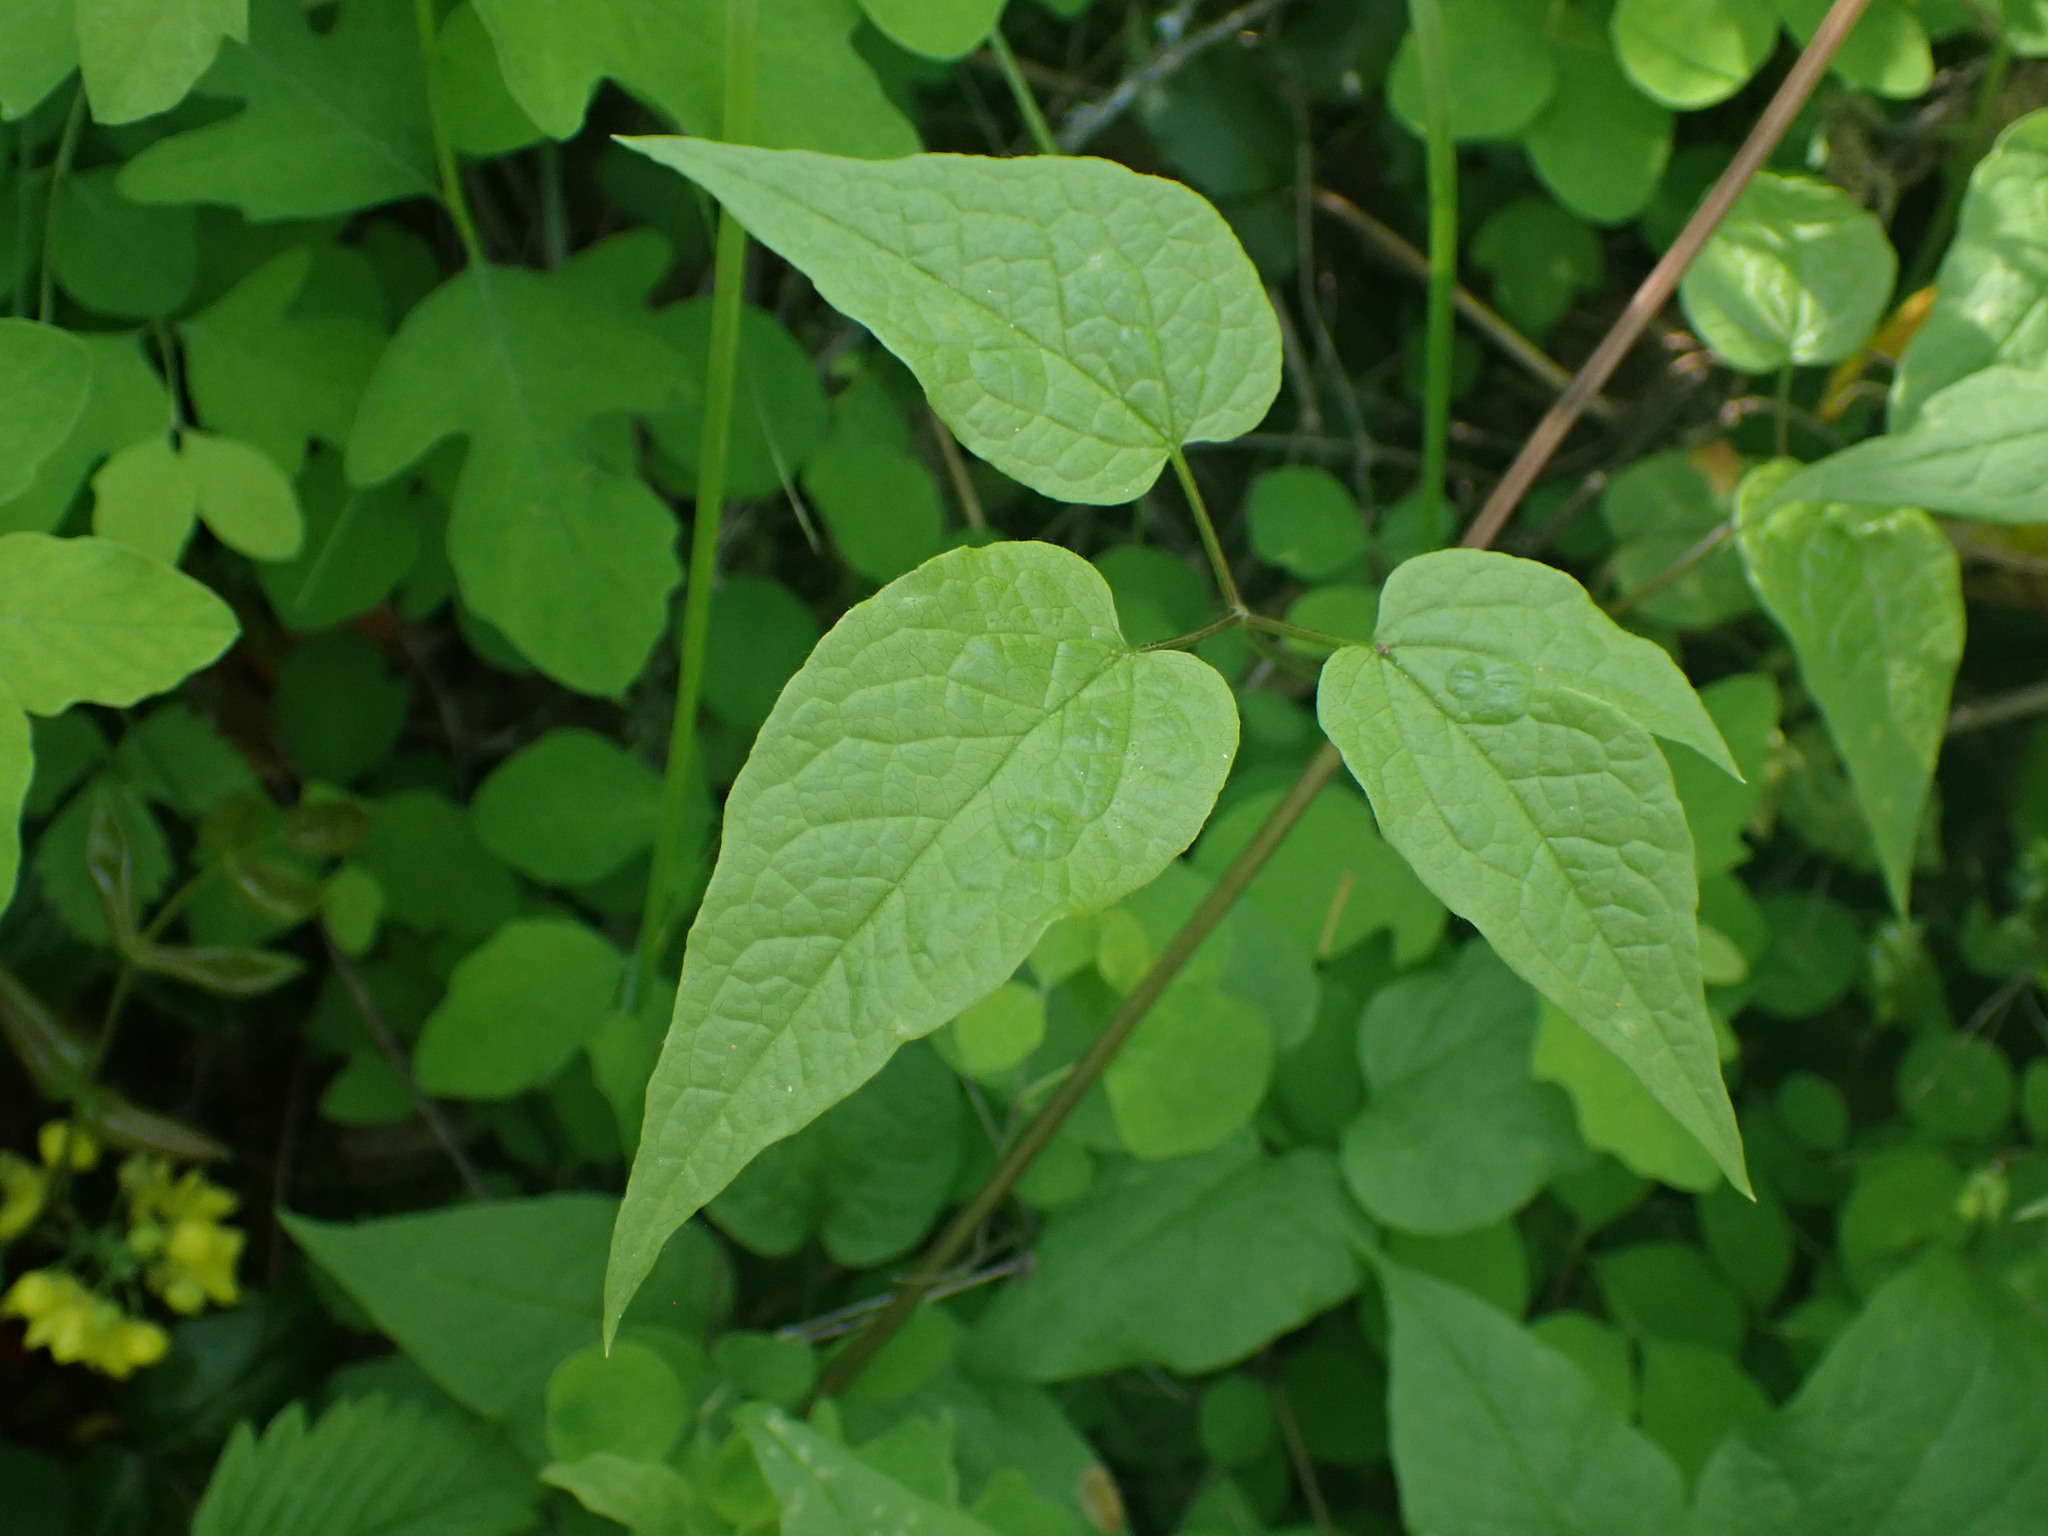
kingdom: Plantae
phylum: Tracheophyta
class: Magnoliopsida
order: Ranunculales
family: Ranunculaceae
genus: Clematis
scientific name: Clematis occidentalis
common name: Purple clematis
